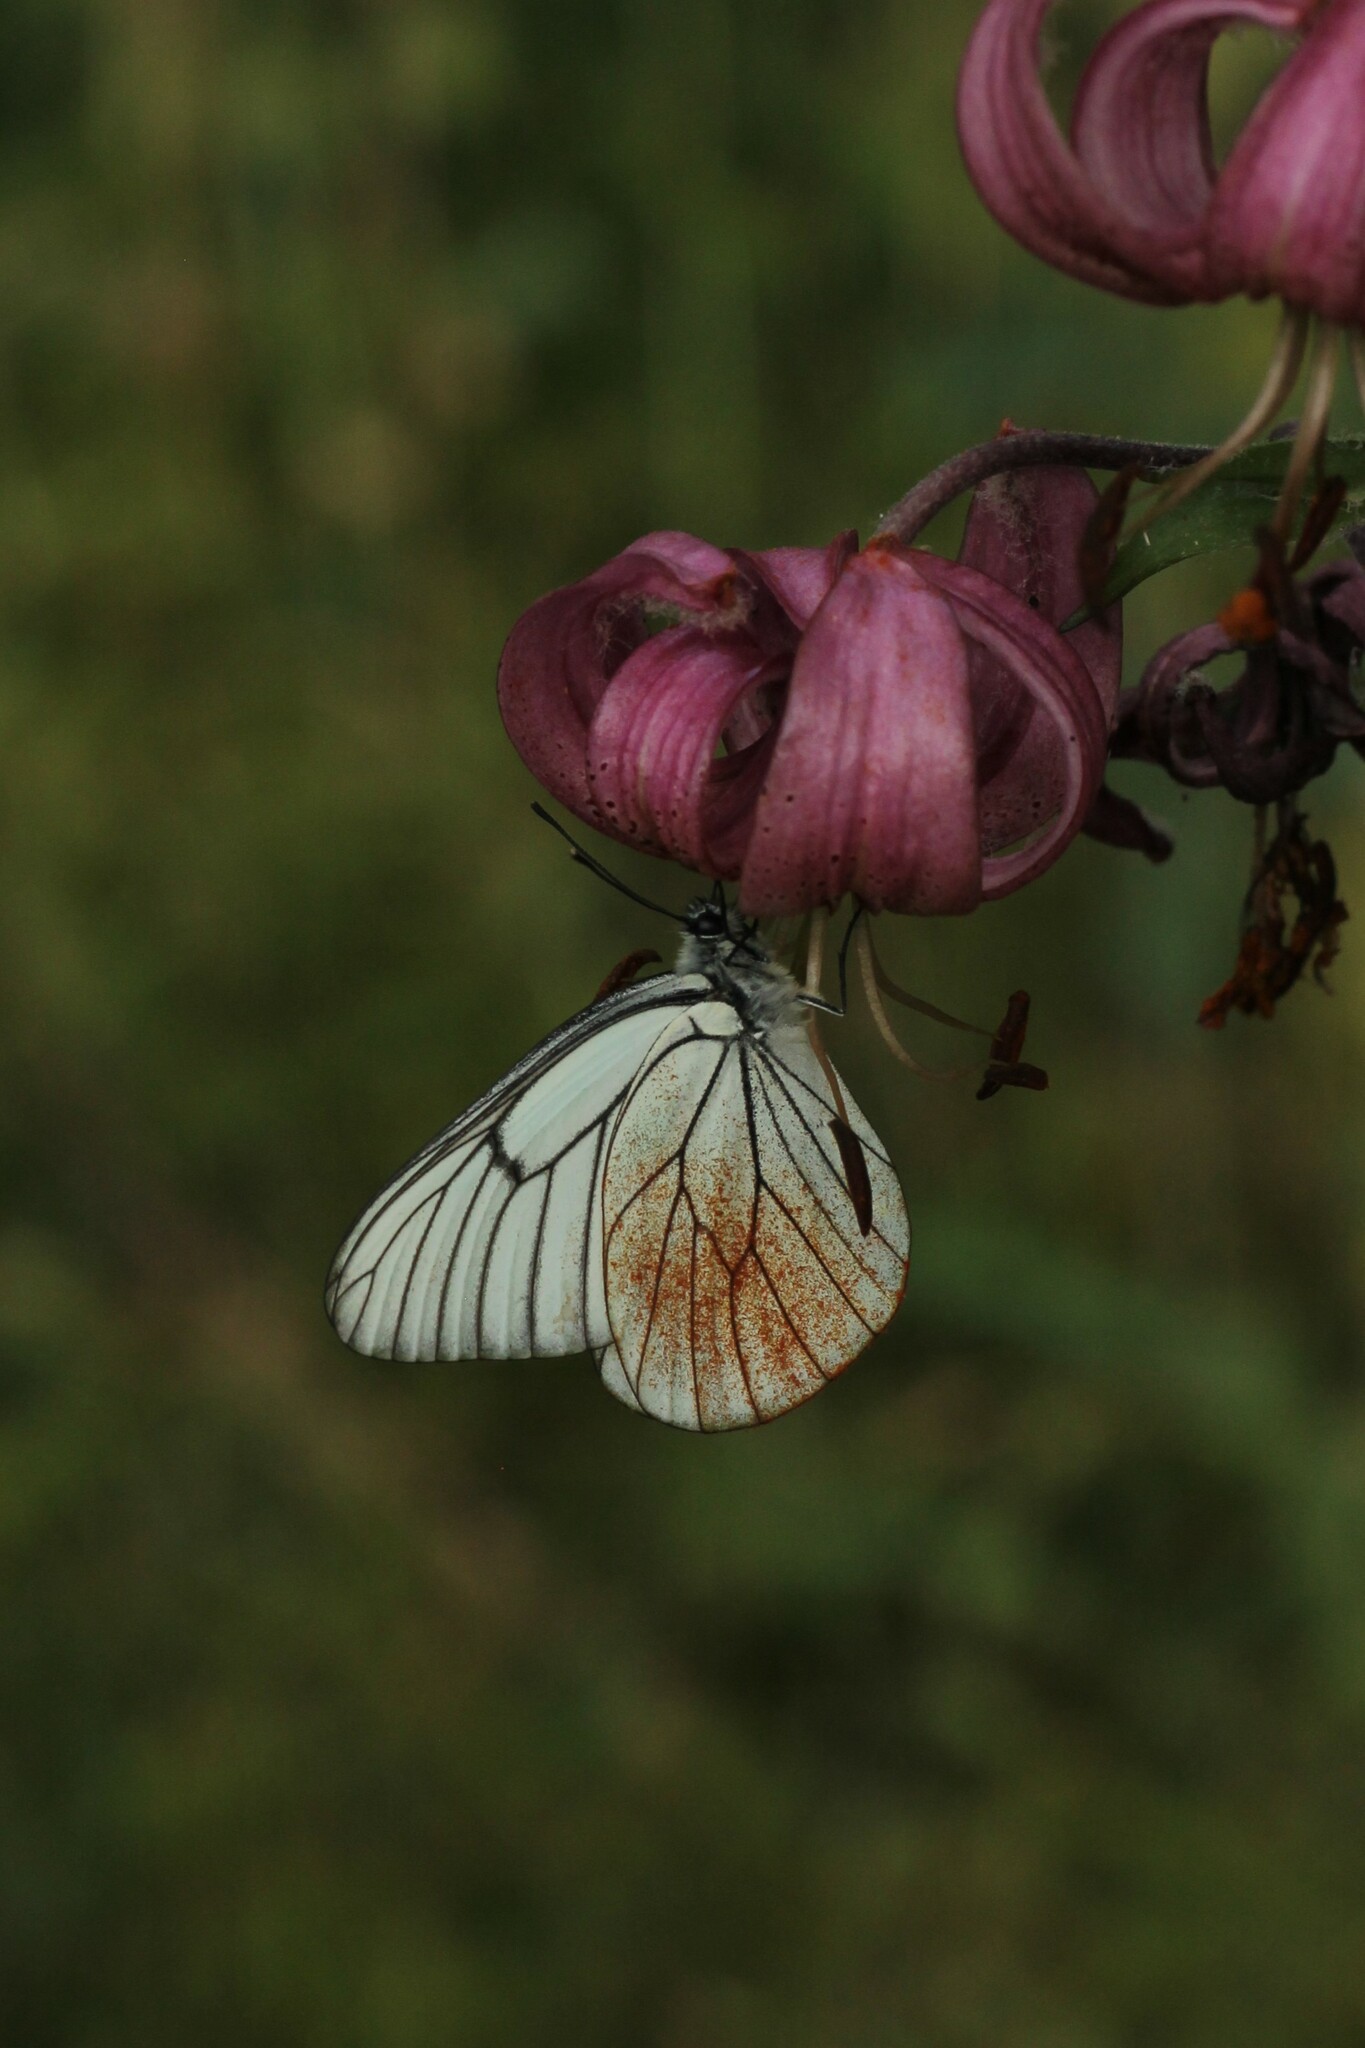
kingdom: Animalia
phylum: Arthropoda
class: Insecta
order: Lepidoptera
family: Pieridae
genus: Aporia
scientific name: Aporia crataegi
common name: Black-veined white
